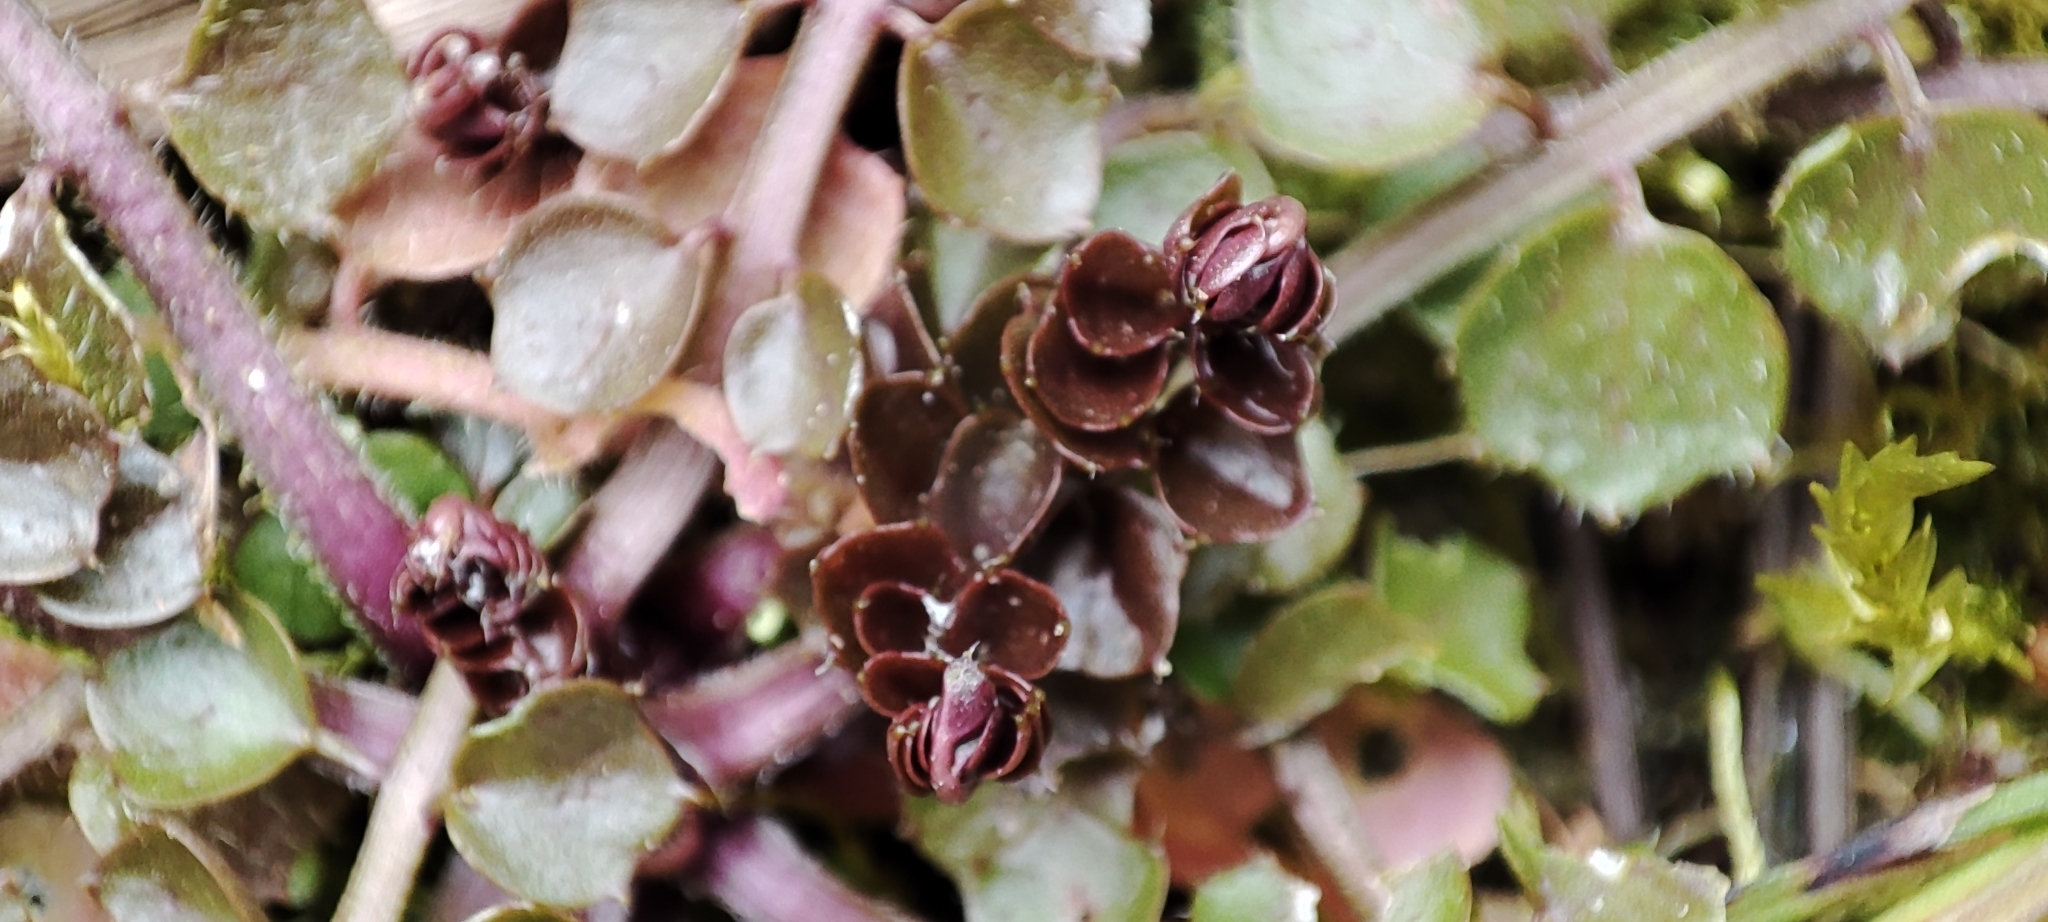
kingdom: Plantae
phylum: Tracheophyta
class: Magnoliopsida
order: Brassicales
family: Brassicaceae
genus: Cardamine
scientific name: Cardamine dentata
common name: Toothed bittercress
